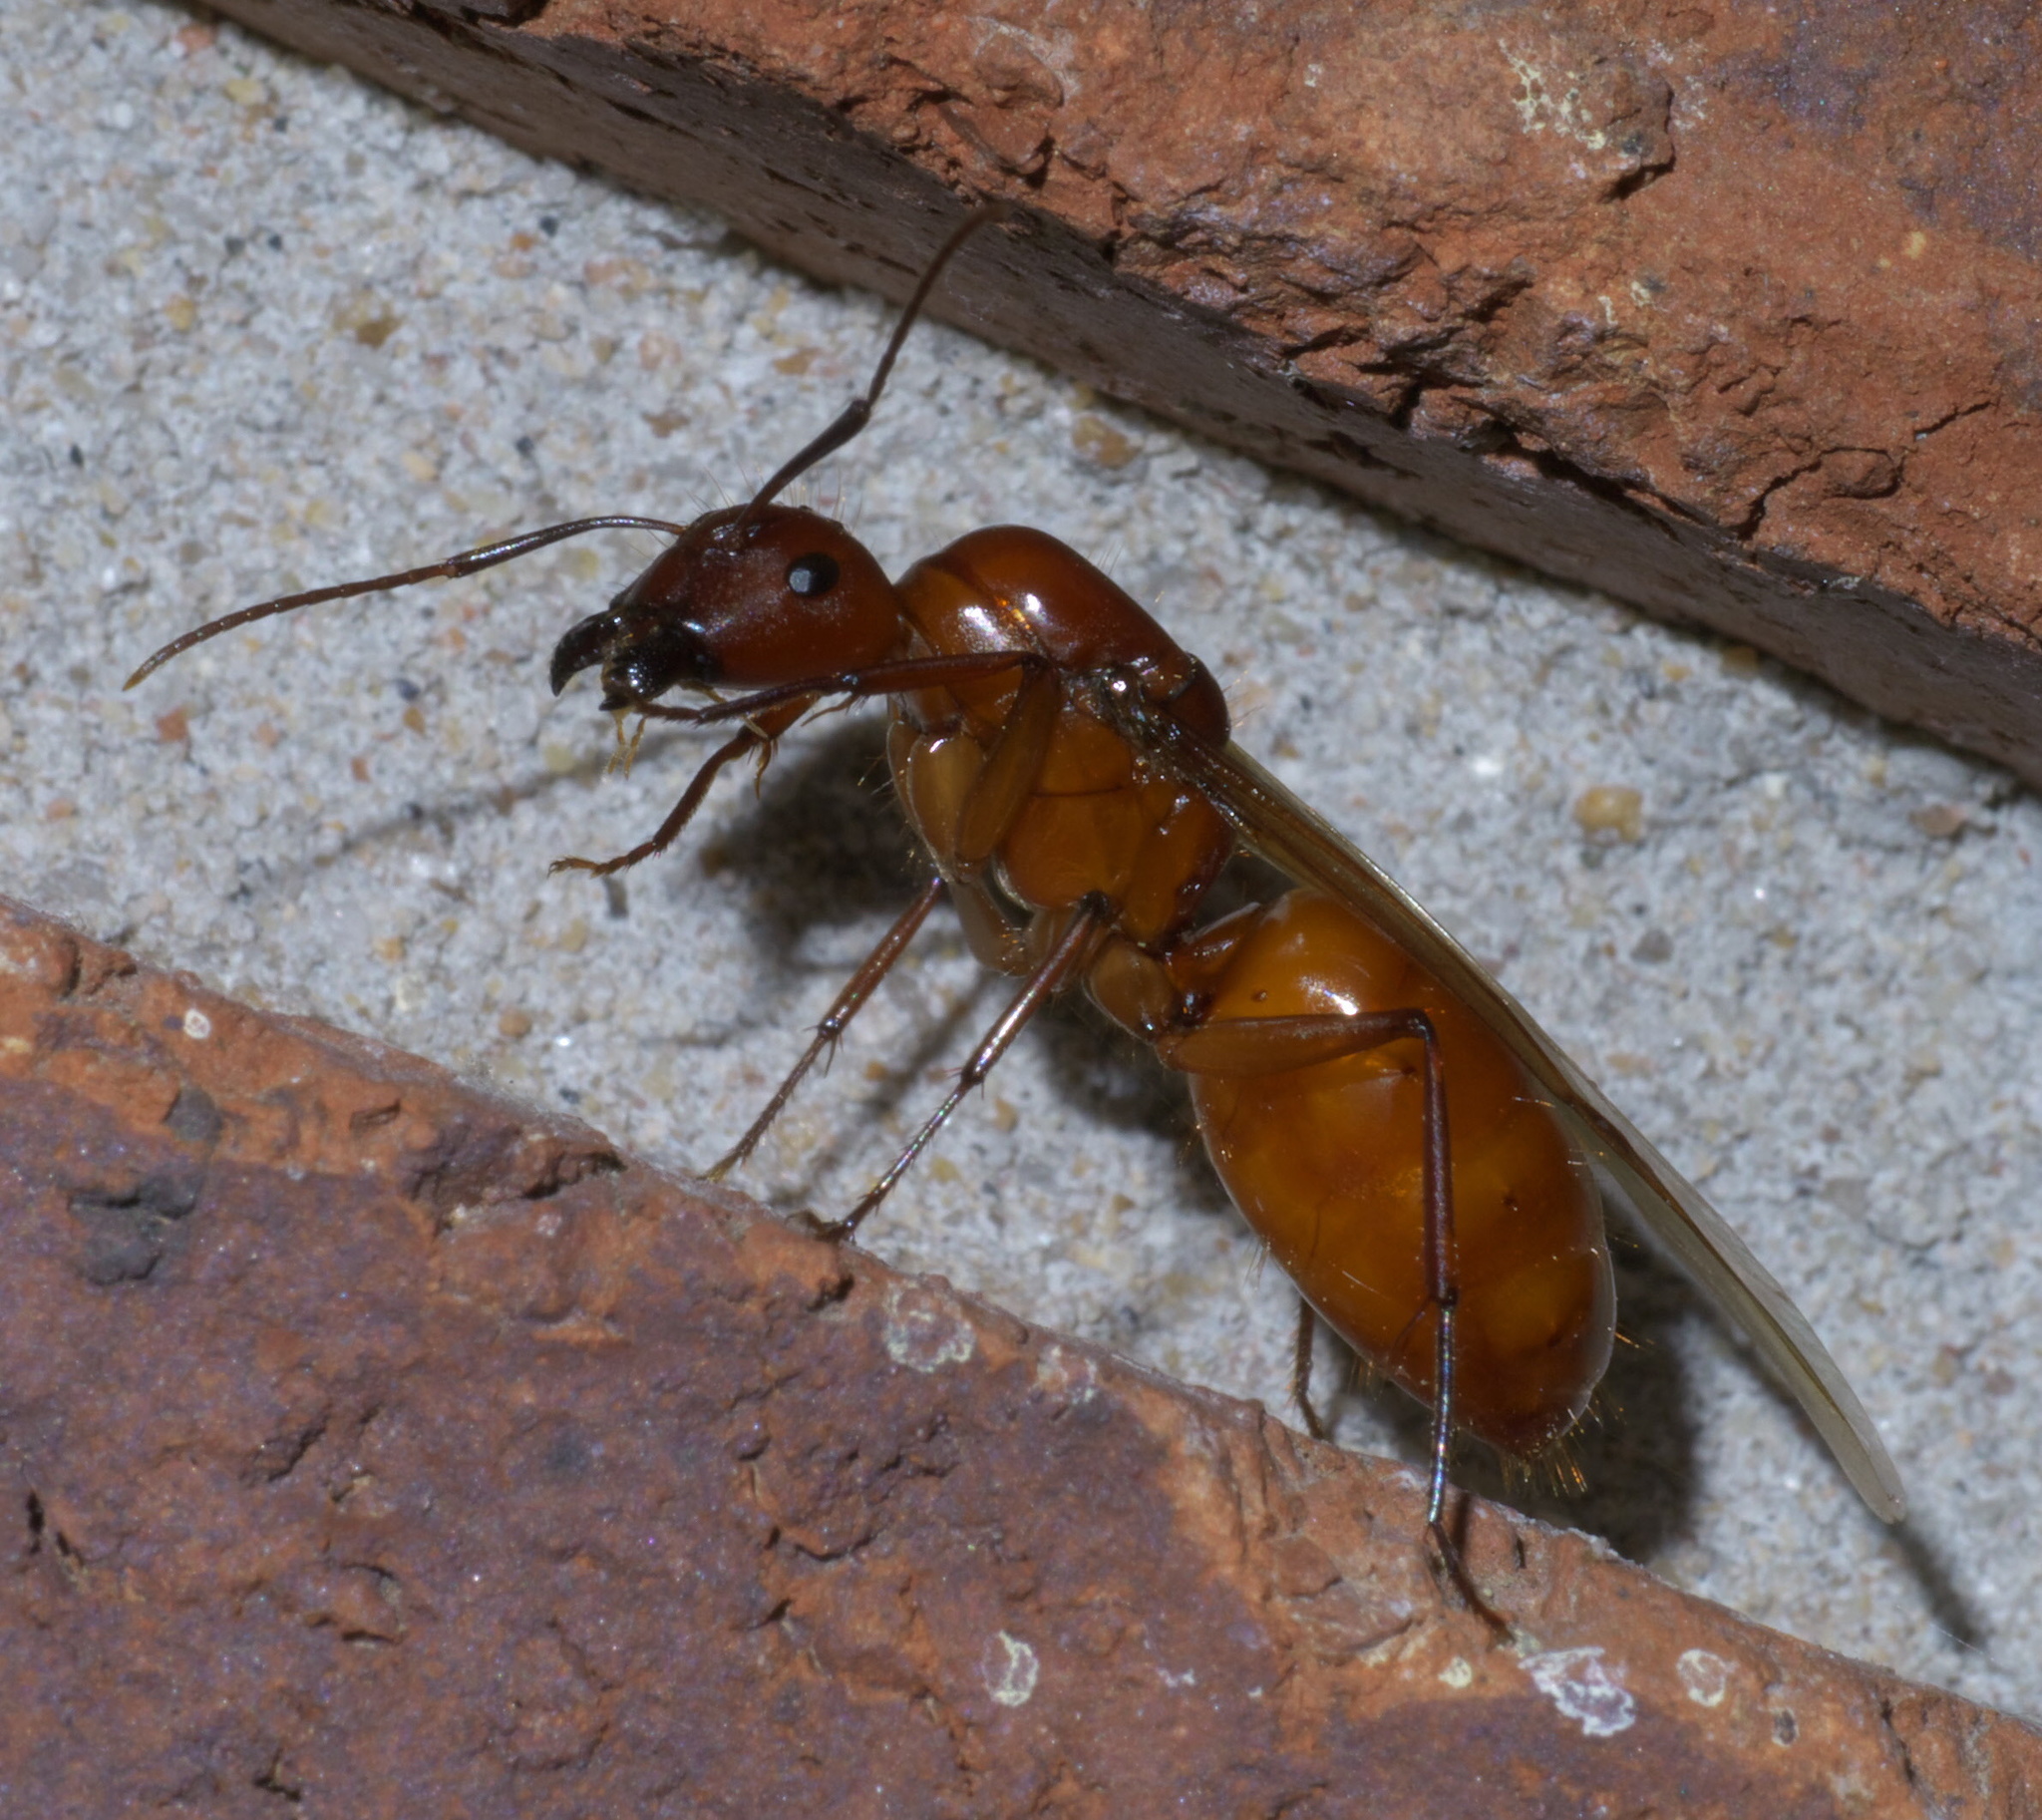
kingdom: Animalia
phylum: Arthropoda
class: Insecta
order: Hymenoptera
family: Formicidae
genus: Camponotus
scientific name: Camponotus castaneus
